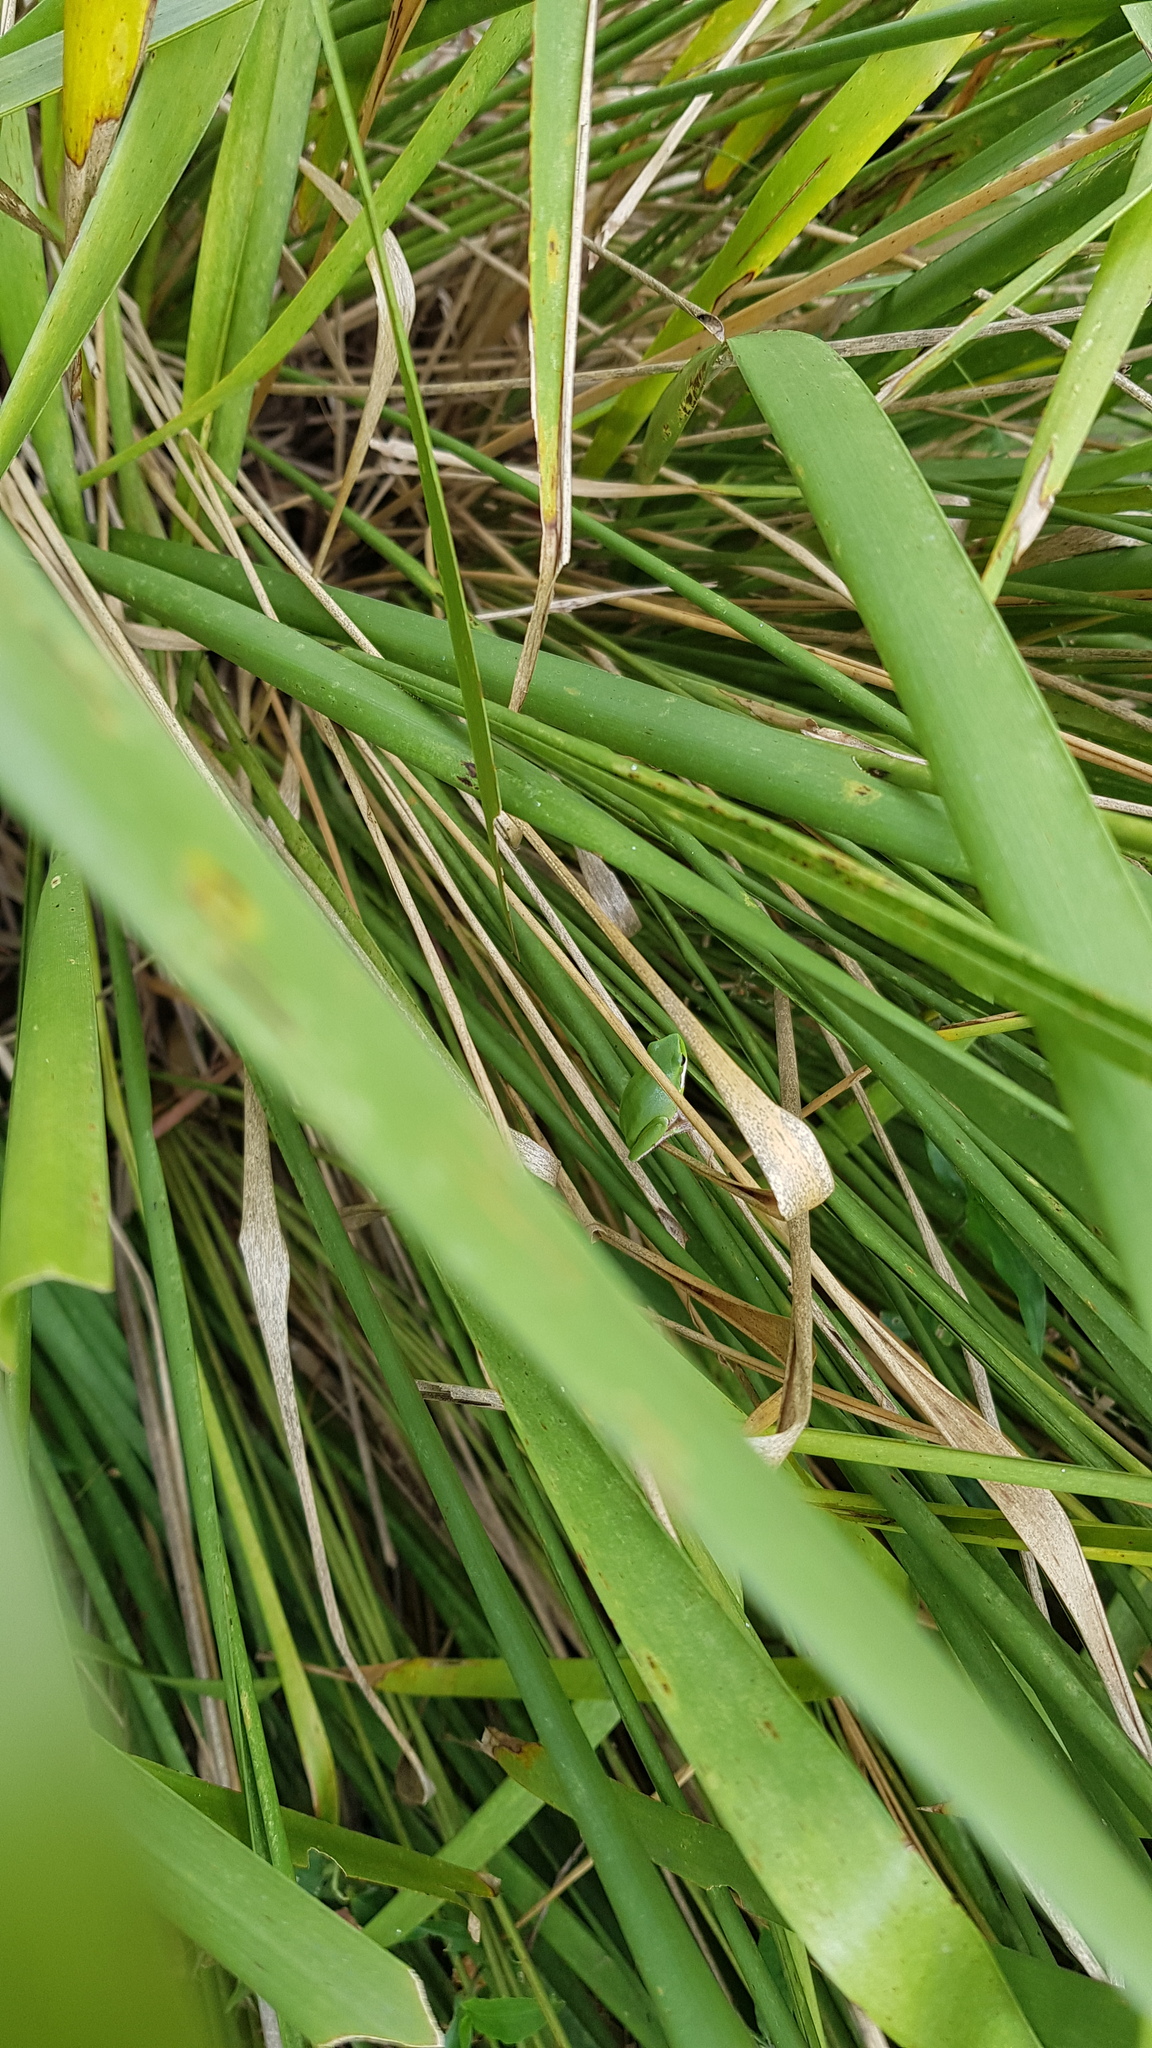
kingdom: Animalia
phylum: Chordata
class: Amphibia
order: Anura
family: Pelodryadidae
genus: Litoria
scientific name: Litoria fallax
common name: Eastern dwarf treefrog
